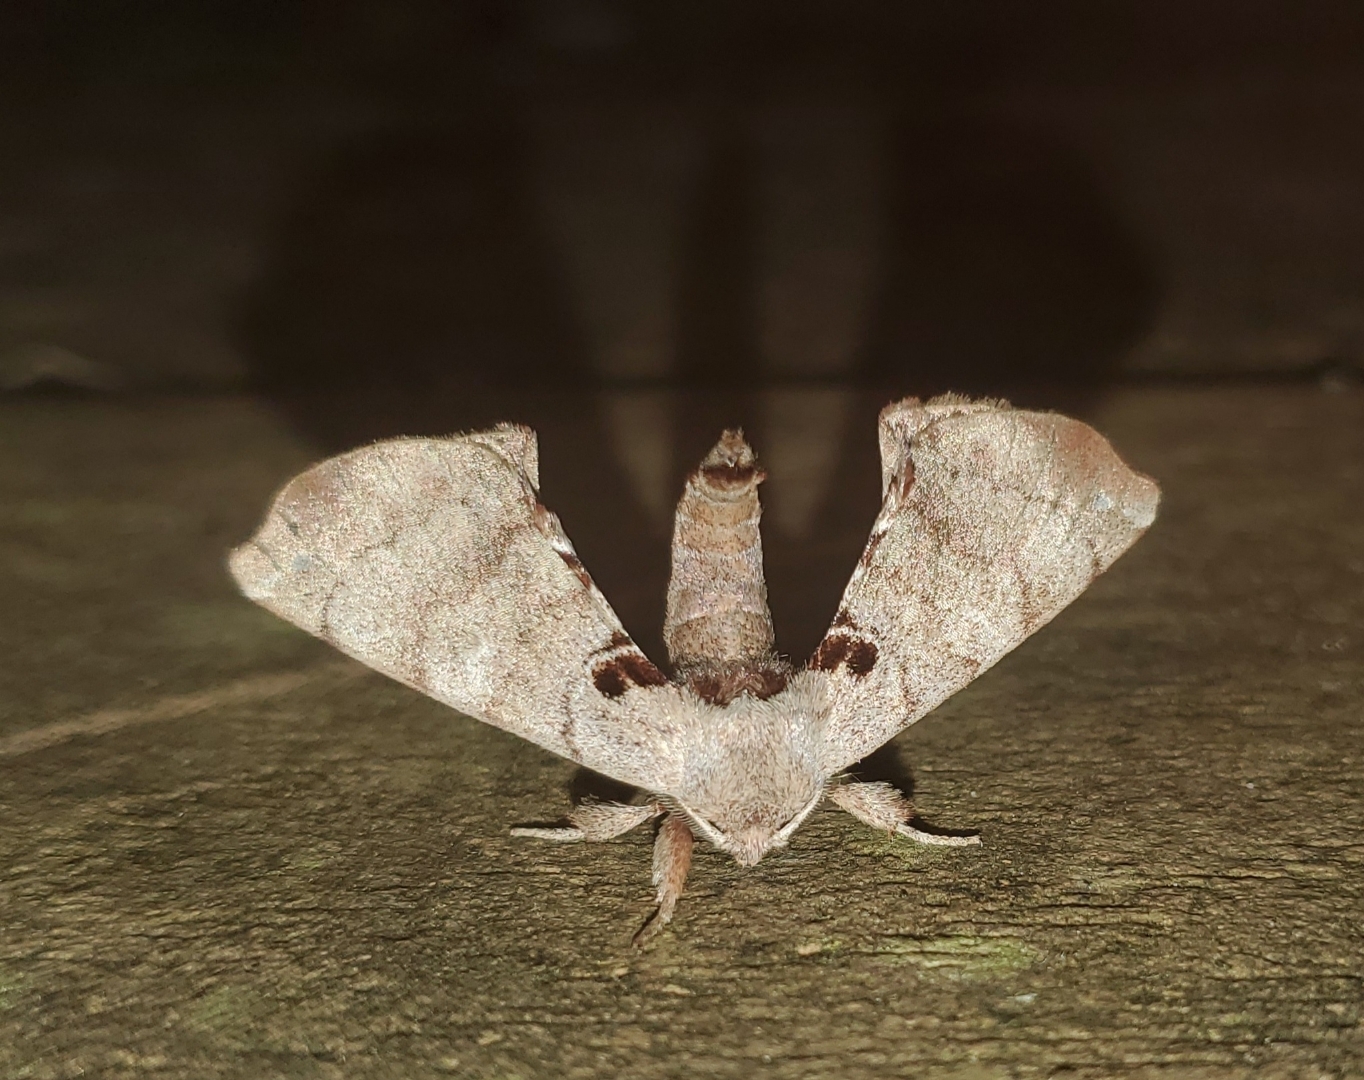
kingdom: Animalia
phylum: Arthropoda
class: Insecta
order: Lepidoptera
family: Apatelodidae
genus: Hygrochroa
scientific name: Hygrochroa Apatelodes torrefacta
